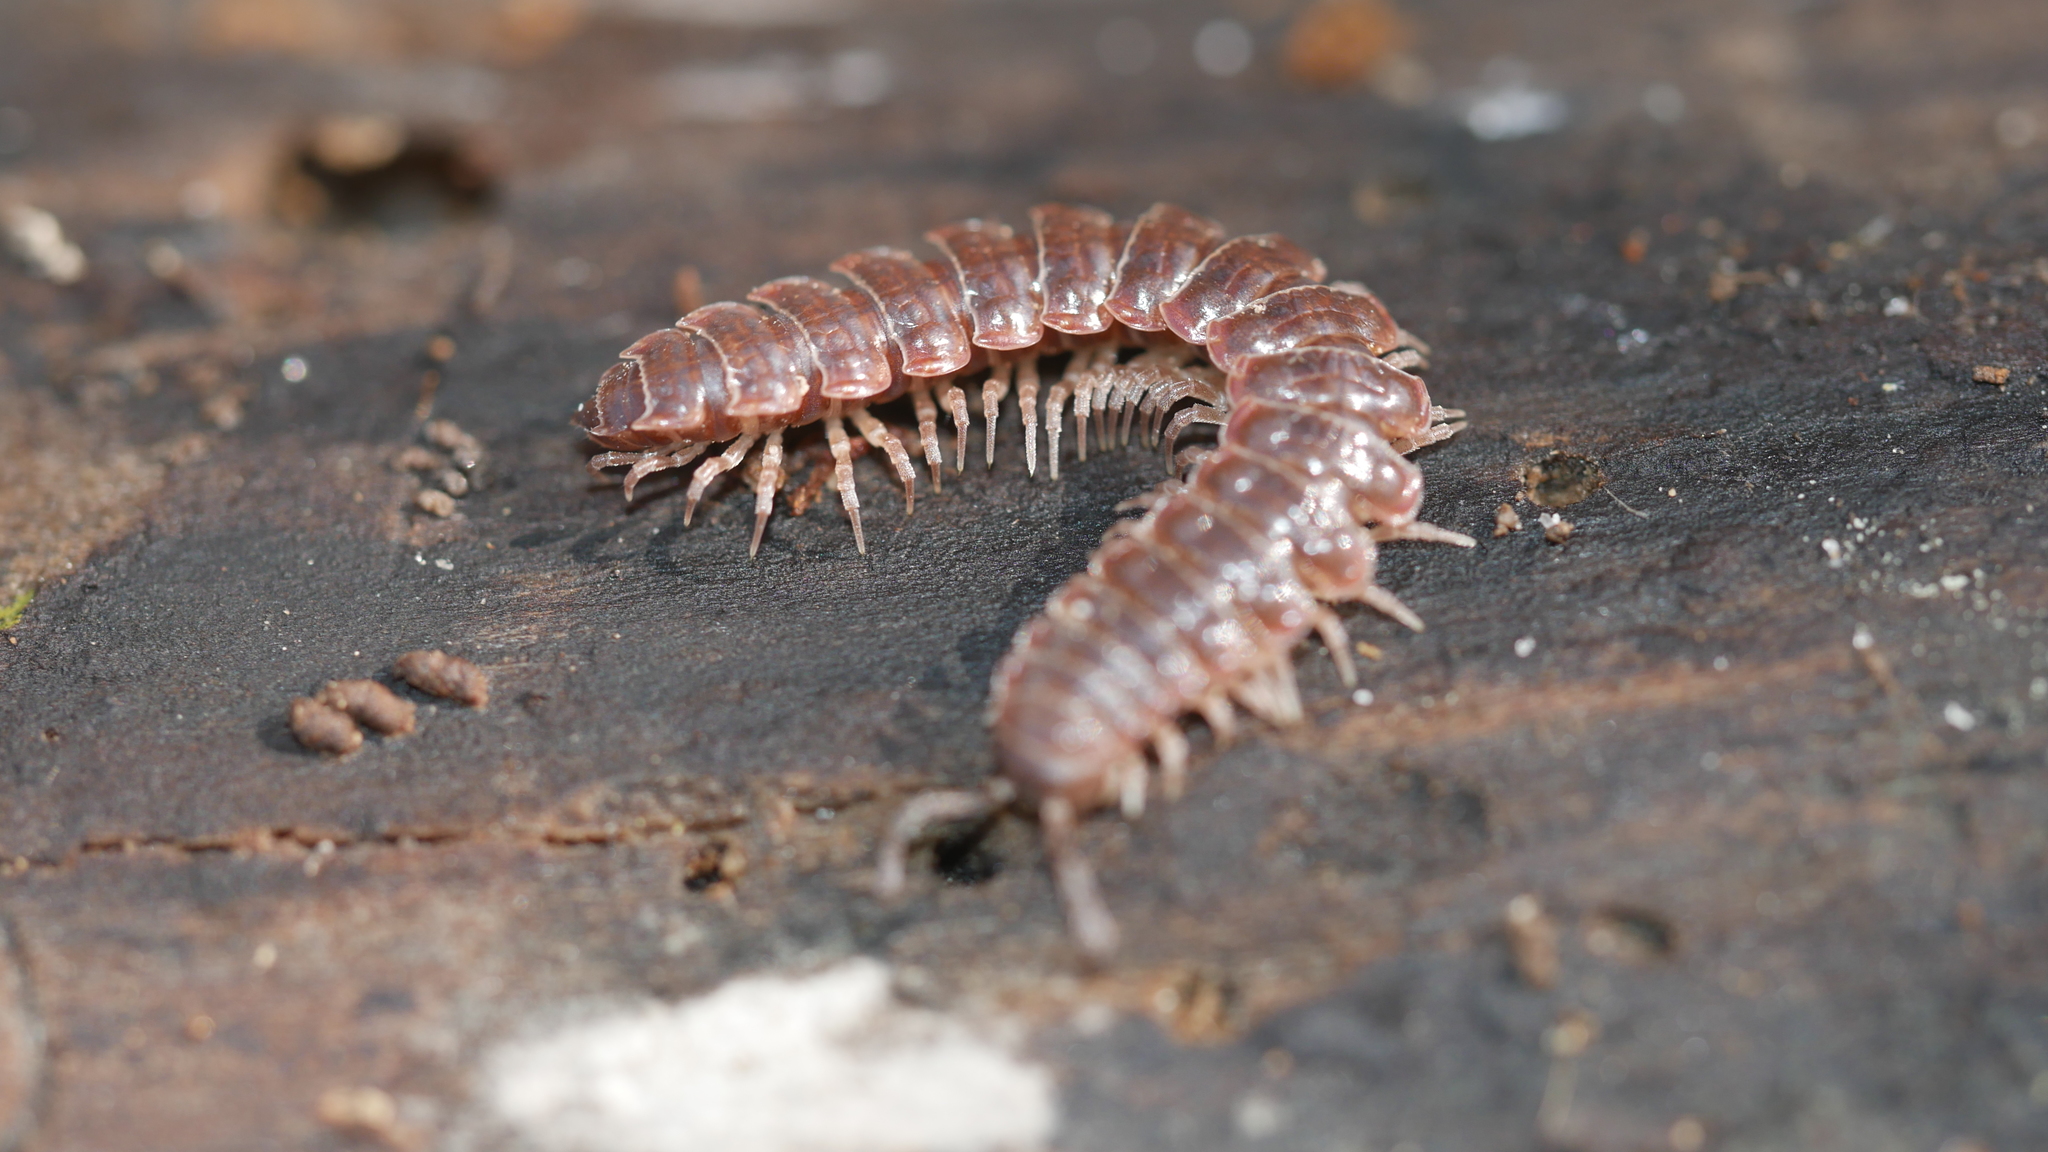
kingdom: Animalia
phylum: Arthropoda
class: Diplopoda
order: Polydesmida
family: Polydesmidae
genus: Pseudopolydesmus
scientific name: Pseudopolydesmus serratus
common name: Common pink flat-back millipede
